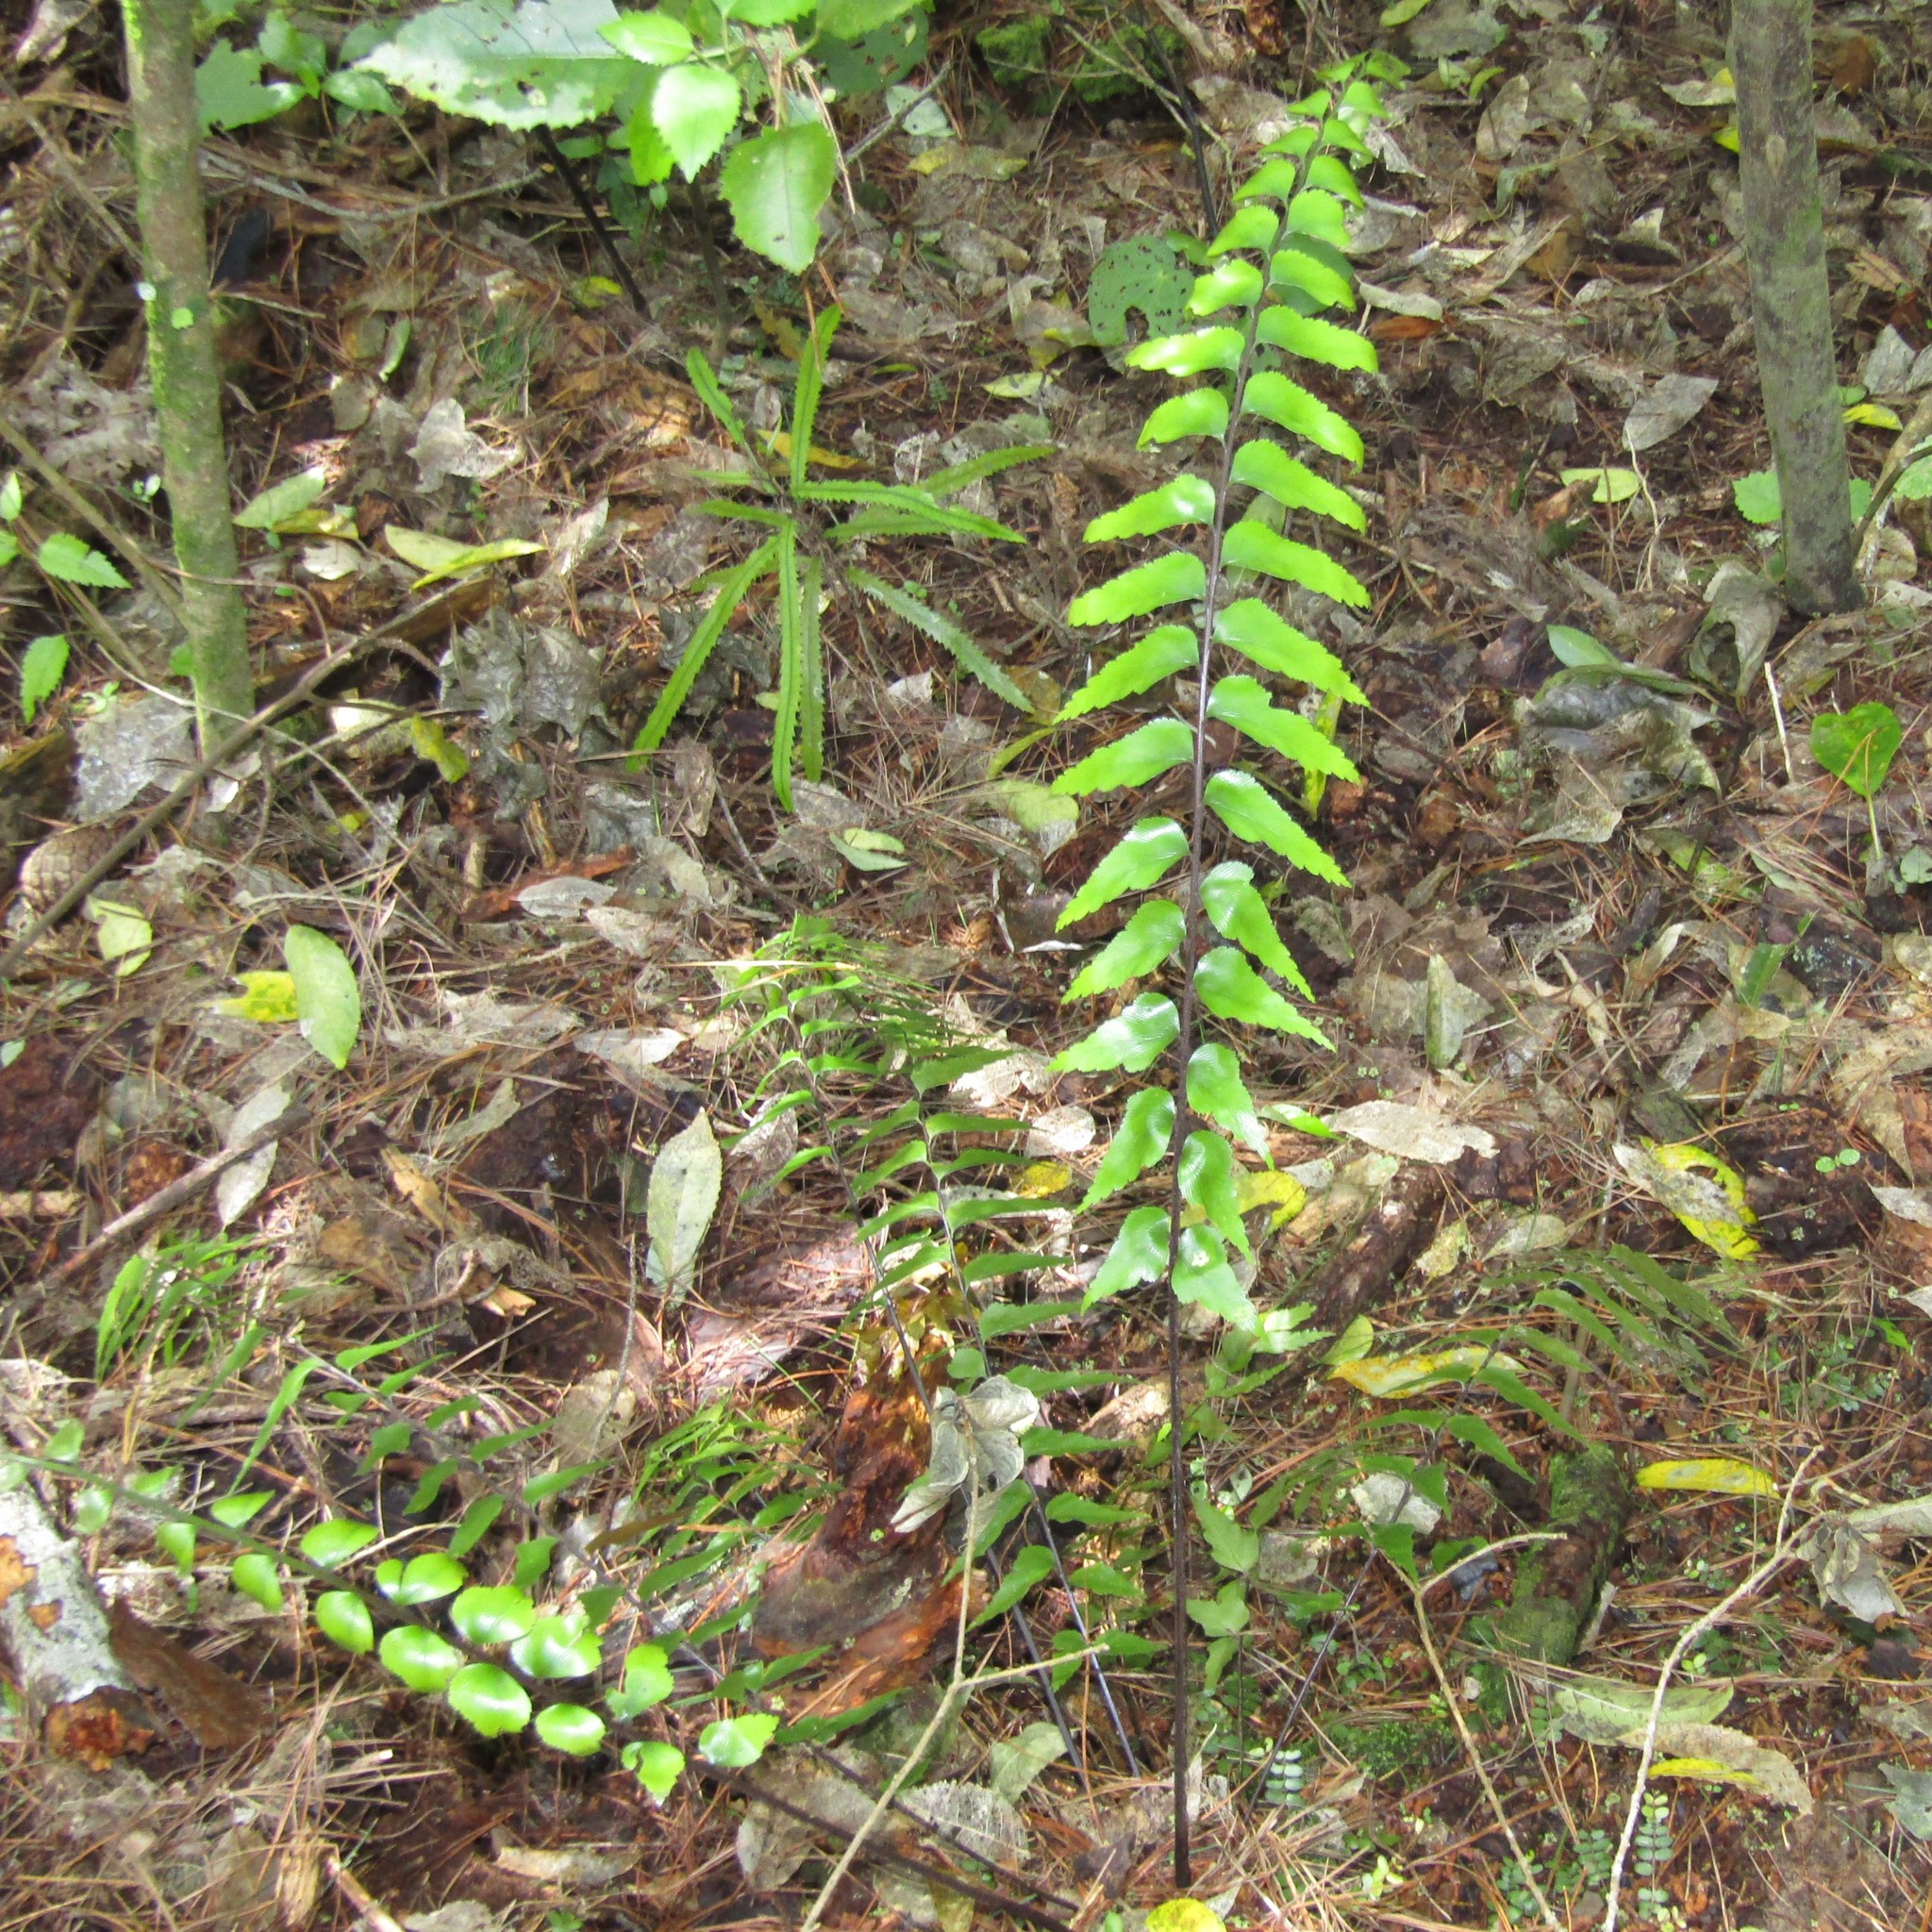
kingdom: Plantae
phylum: Tracheophyta
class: Polypodiopsida
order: Polypodiales
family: Aspleniaceae
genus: Asplenium
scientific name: Asplenium polyodon
